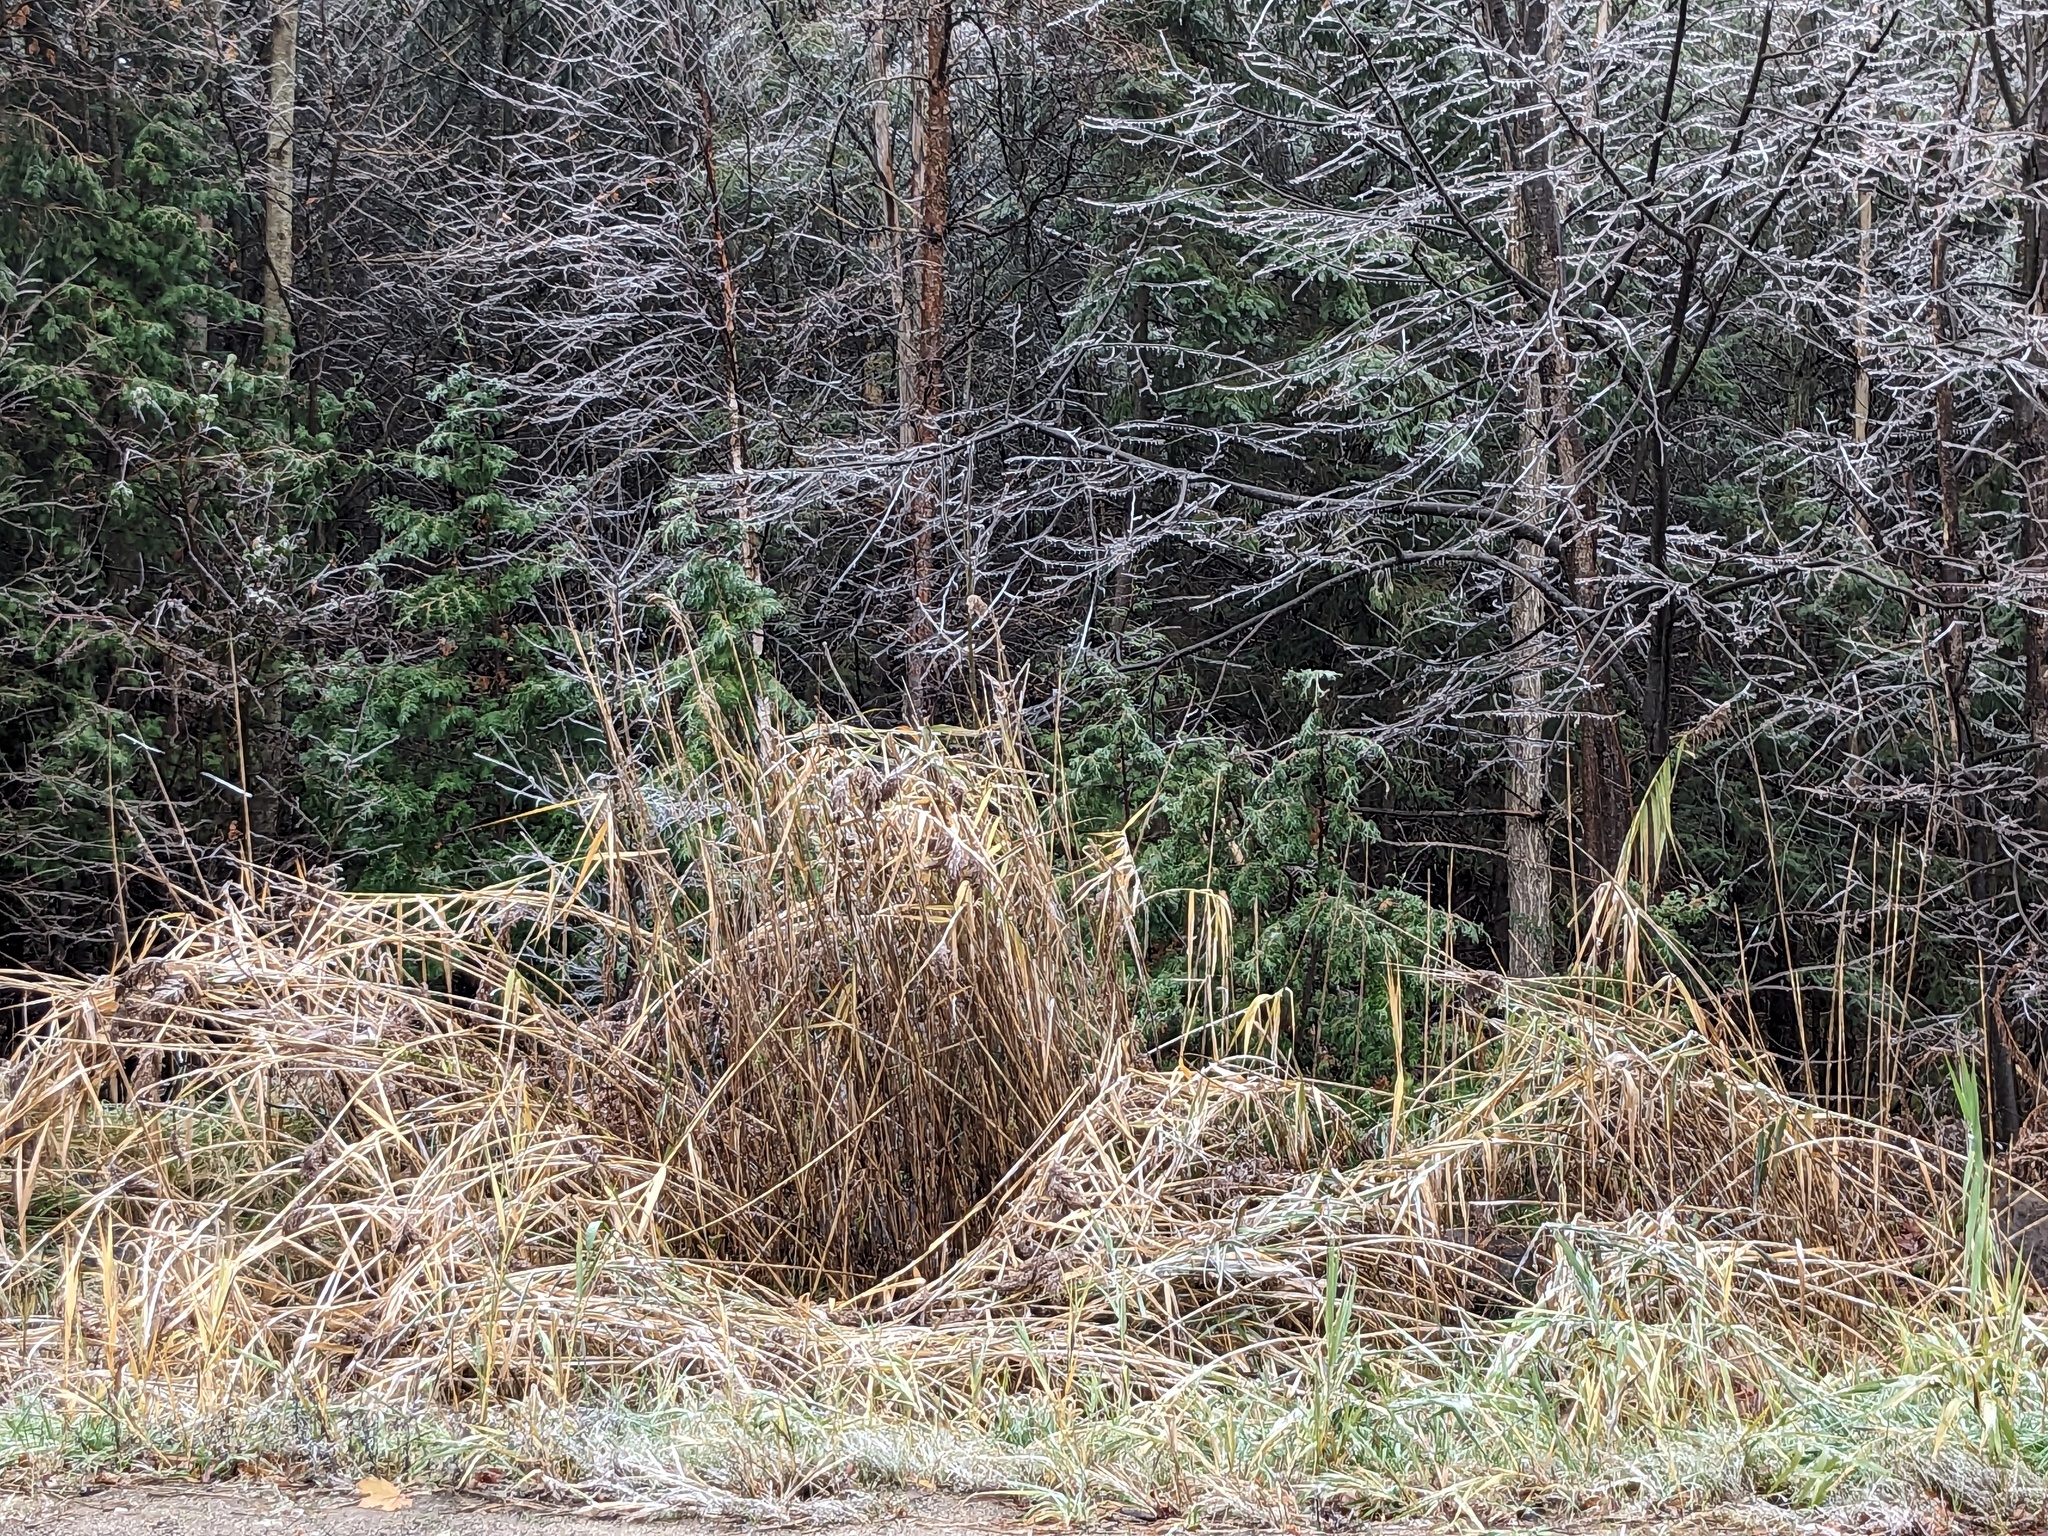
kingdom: Plantae
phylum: Tracheophyta
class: Liliopsida
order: Poales
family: Poaceae
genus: Phragmites
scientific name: Phragmites australis
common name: Common reed
